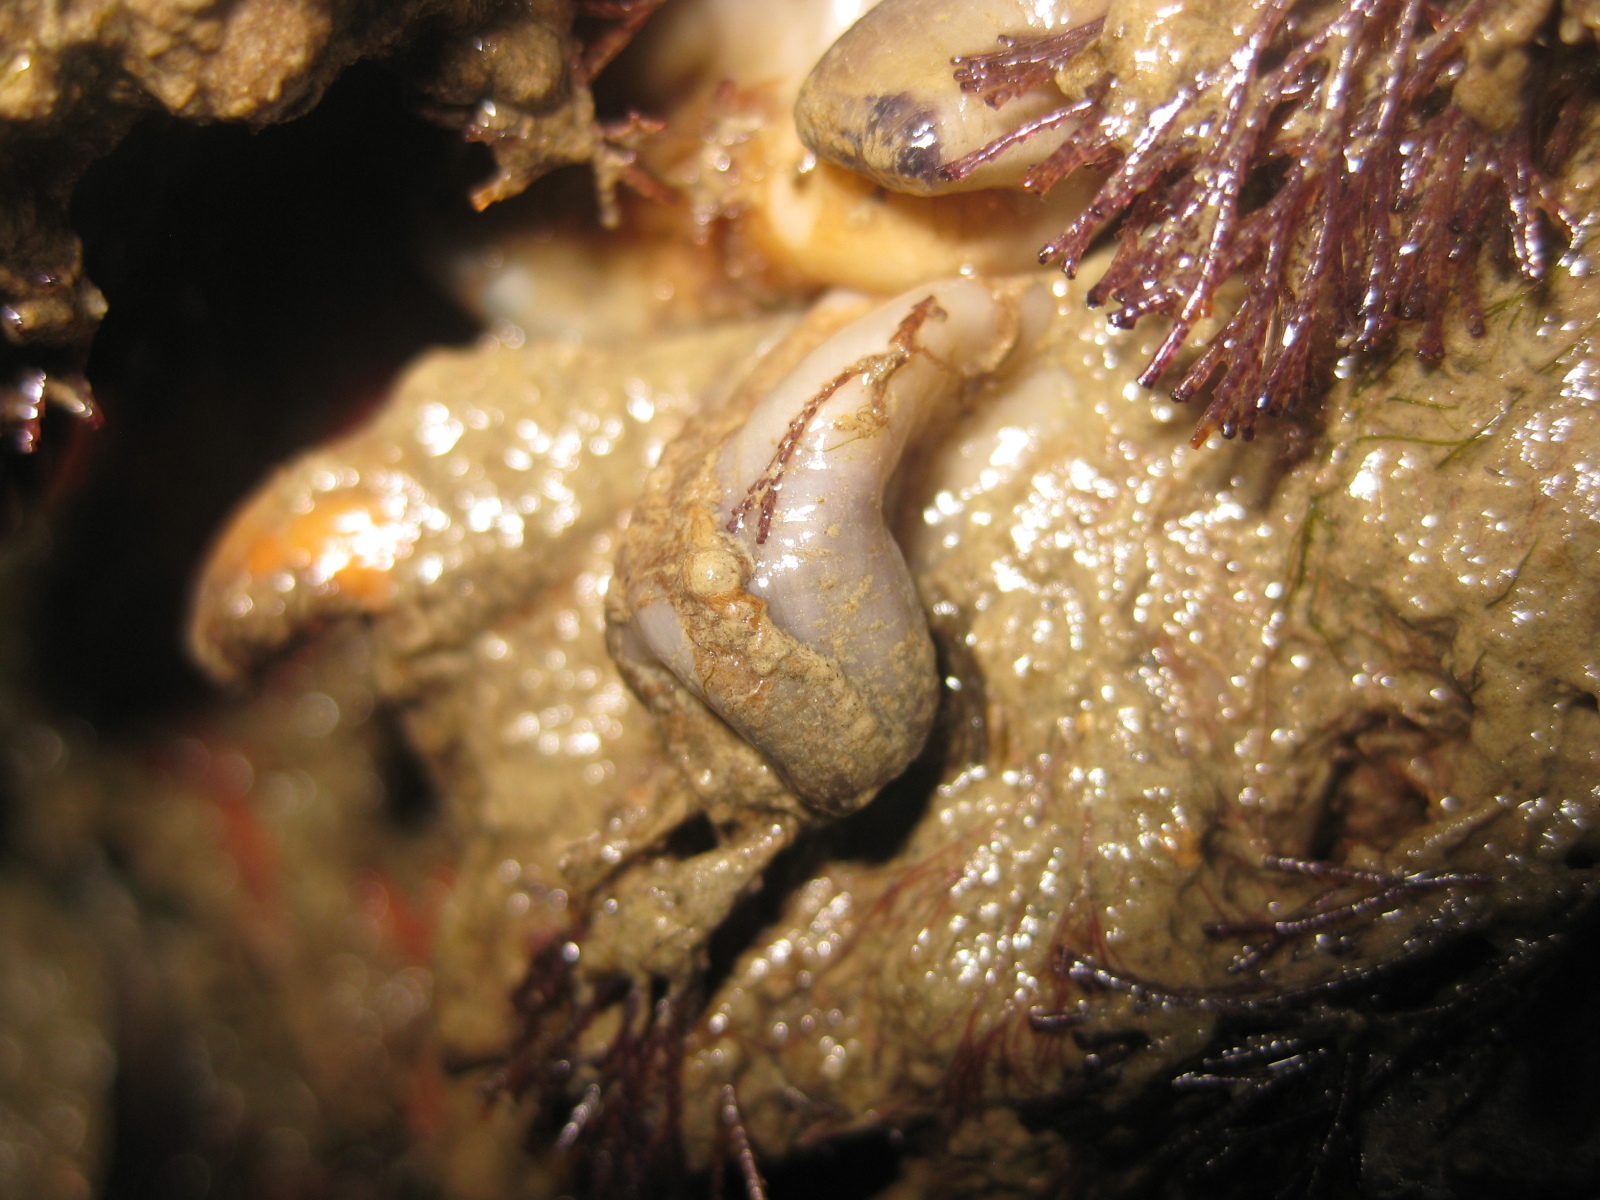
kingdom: Animalia
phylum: Chordata
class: Ascidiacea
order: Stolidobranchia
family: Styelidae
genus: Asterocarpa
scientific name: Asterocarpa coerulea
